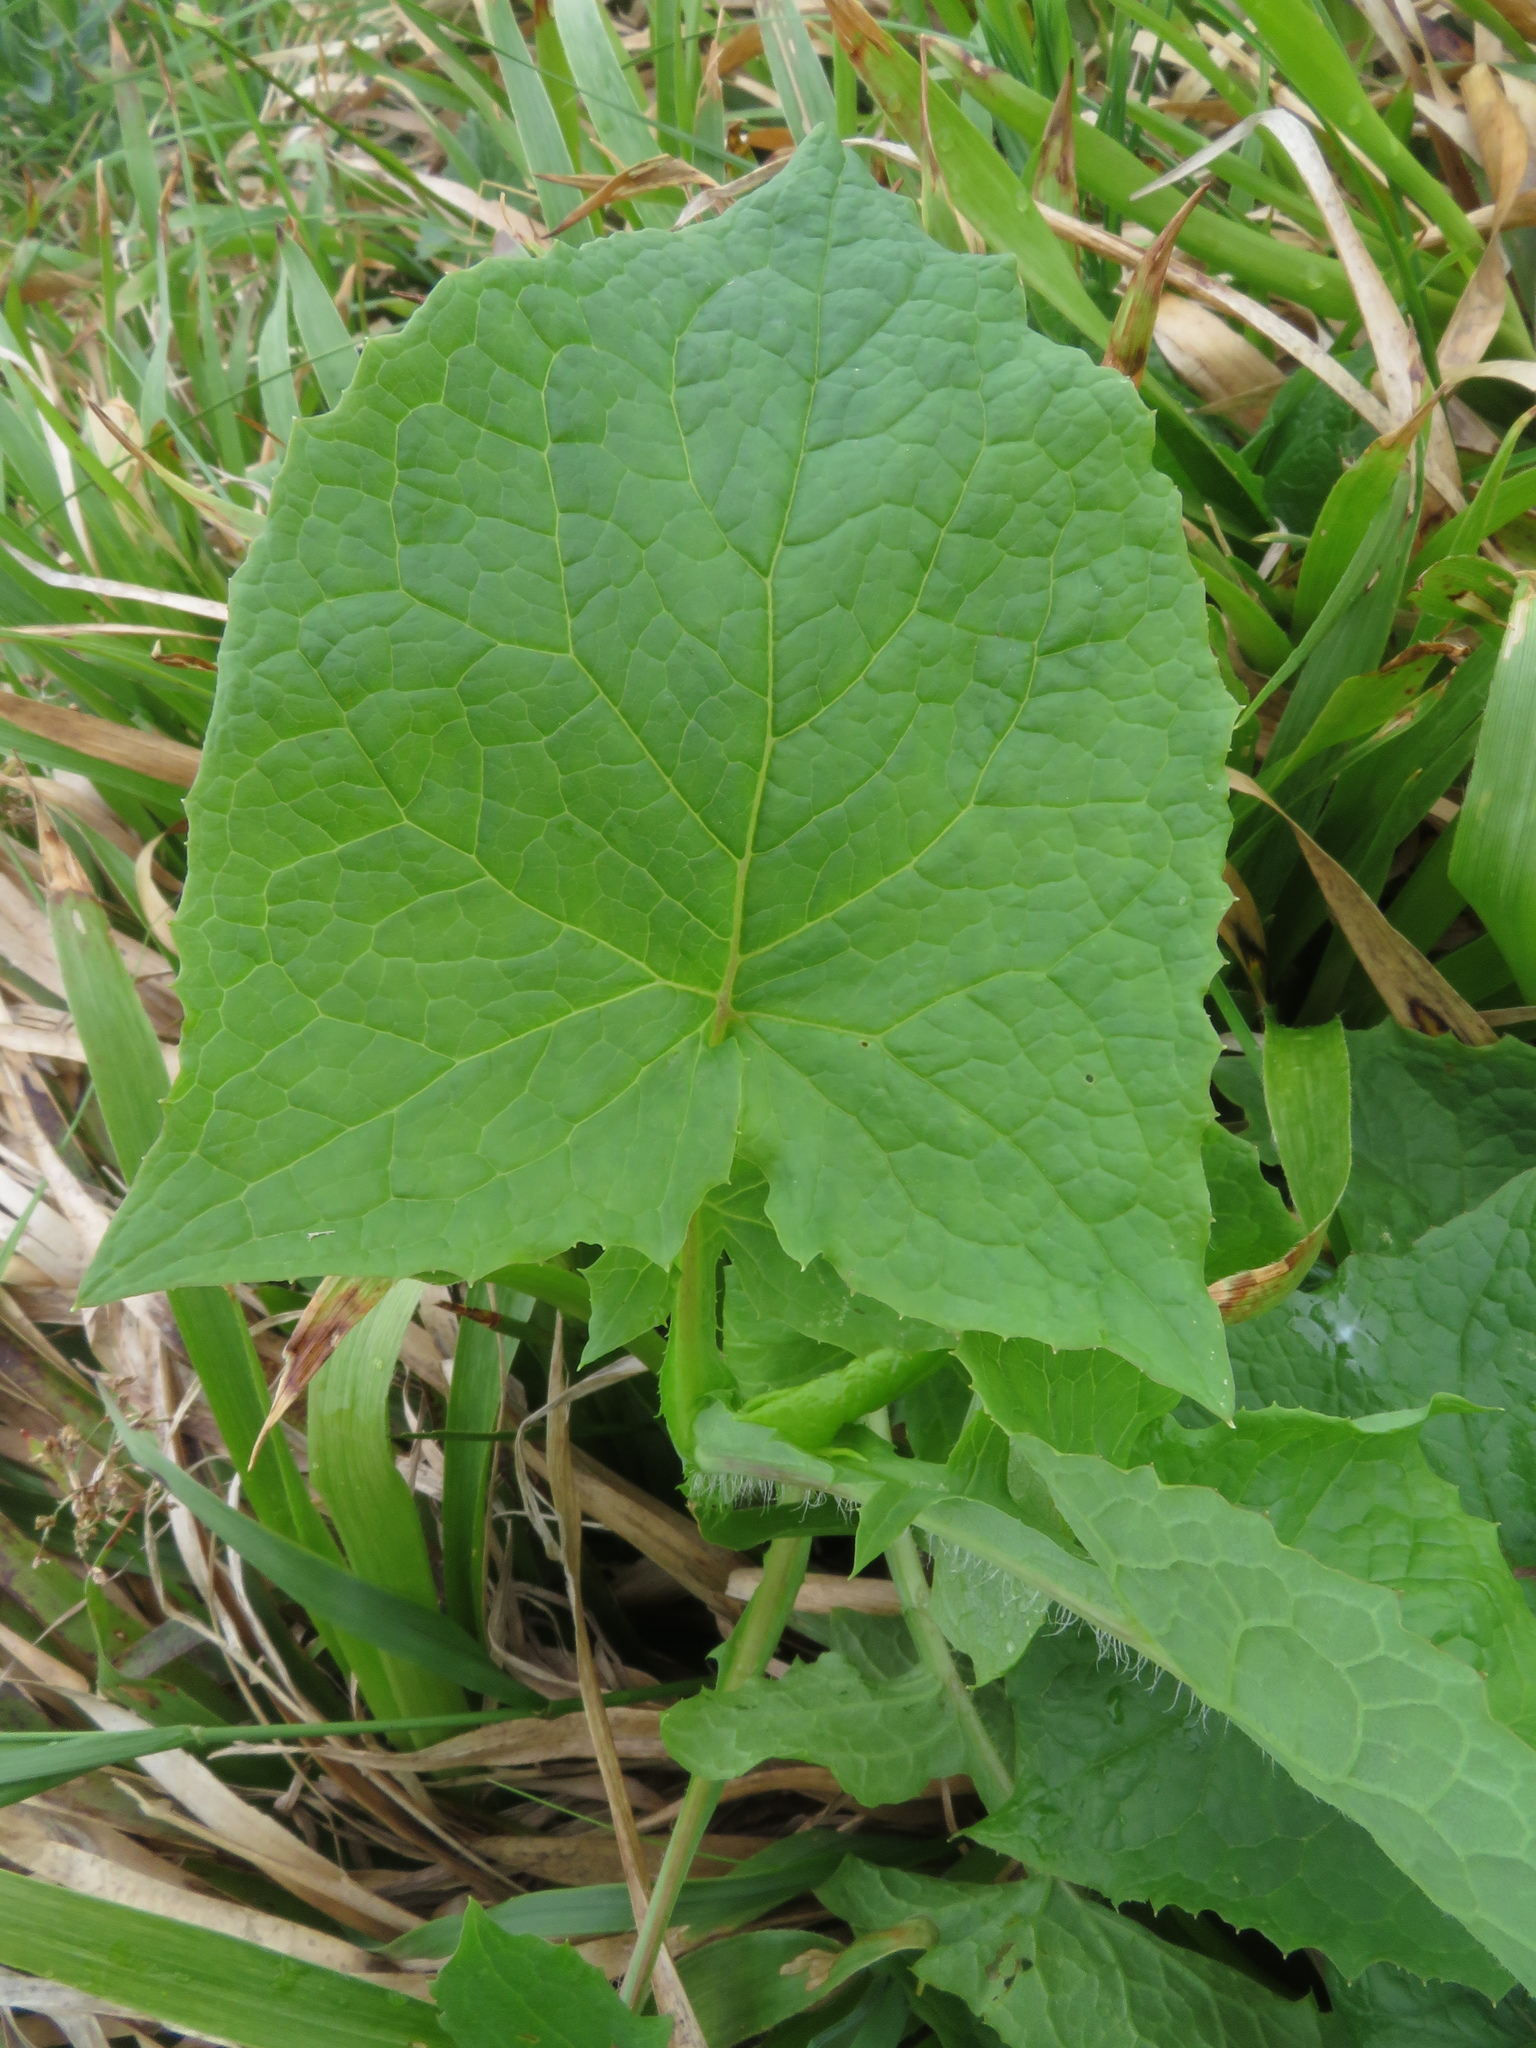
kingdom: Plantae
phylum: Tracheophyta
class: Magnoliopsida
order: Asterales
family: Asteraceae
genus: Cicerbita
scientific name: Cicerbita alpina
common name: Alpine blue-sow-thistle
